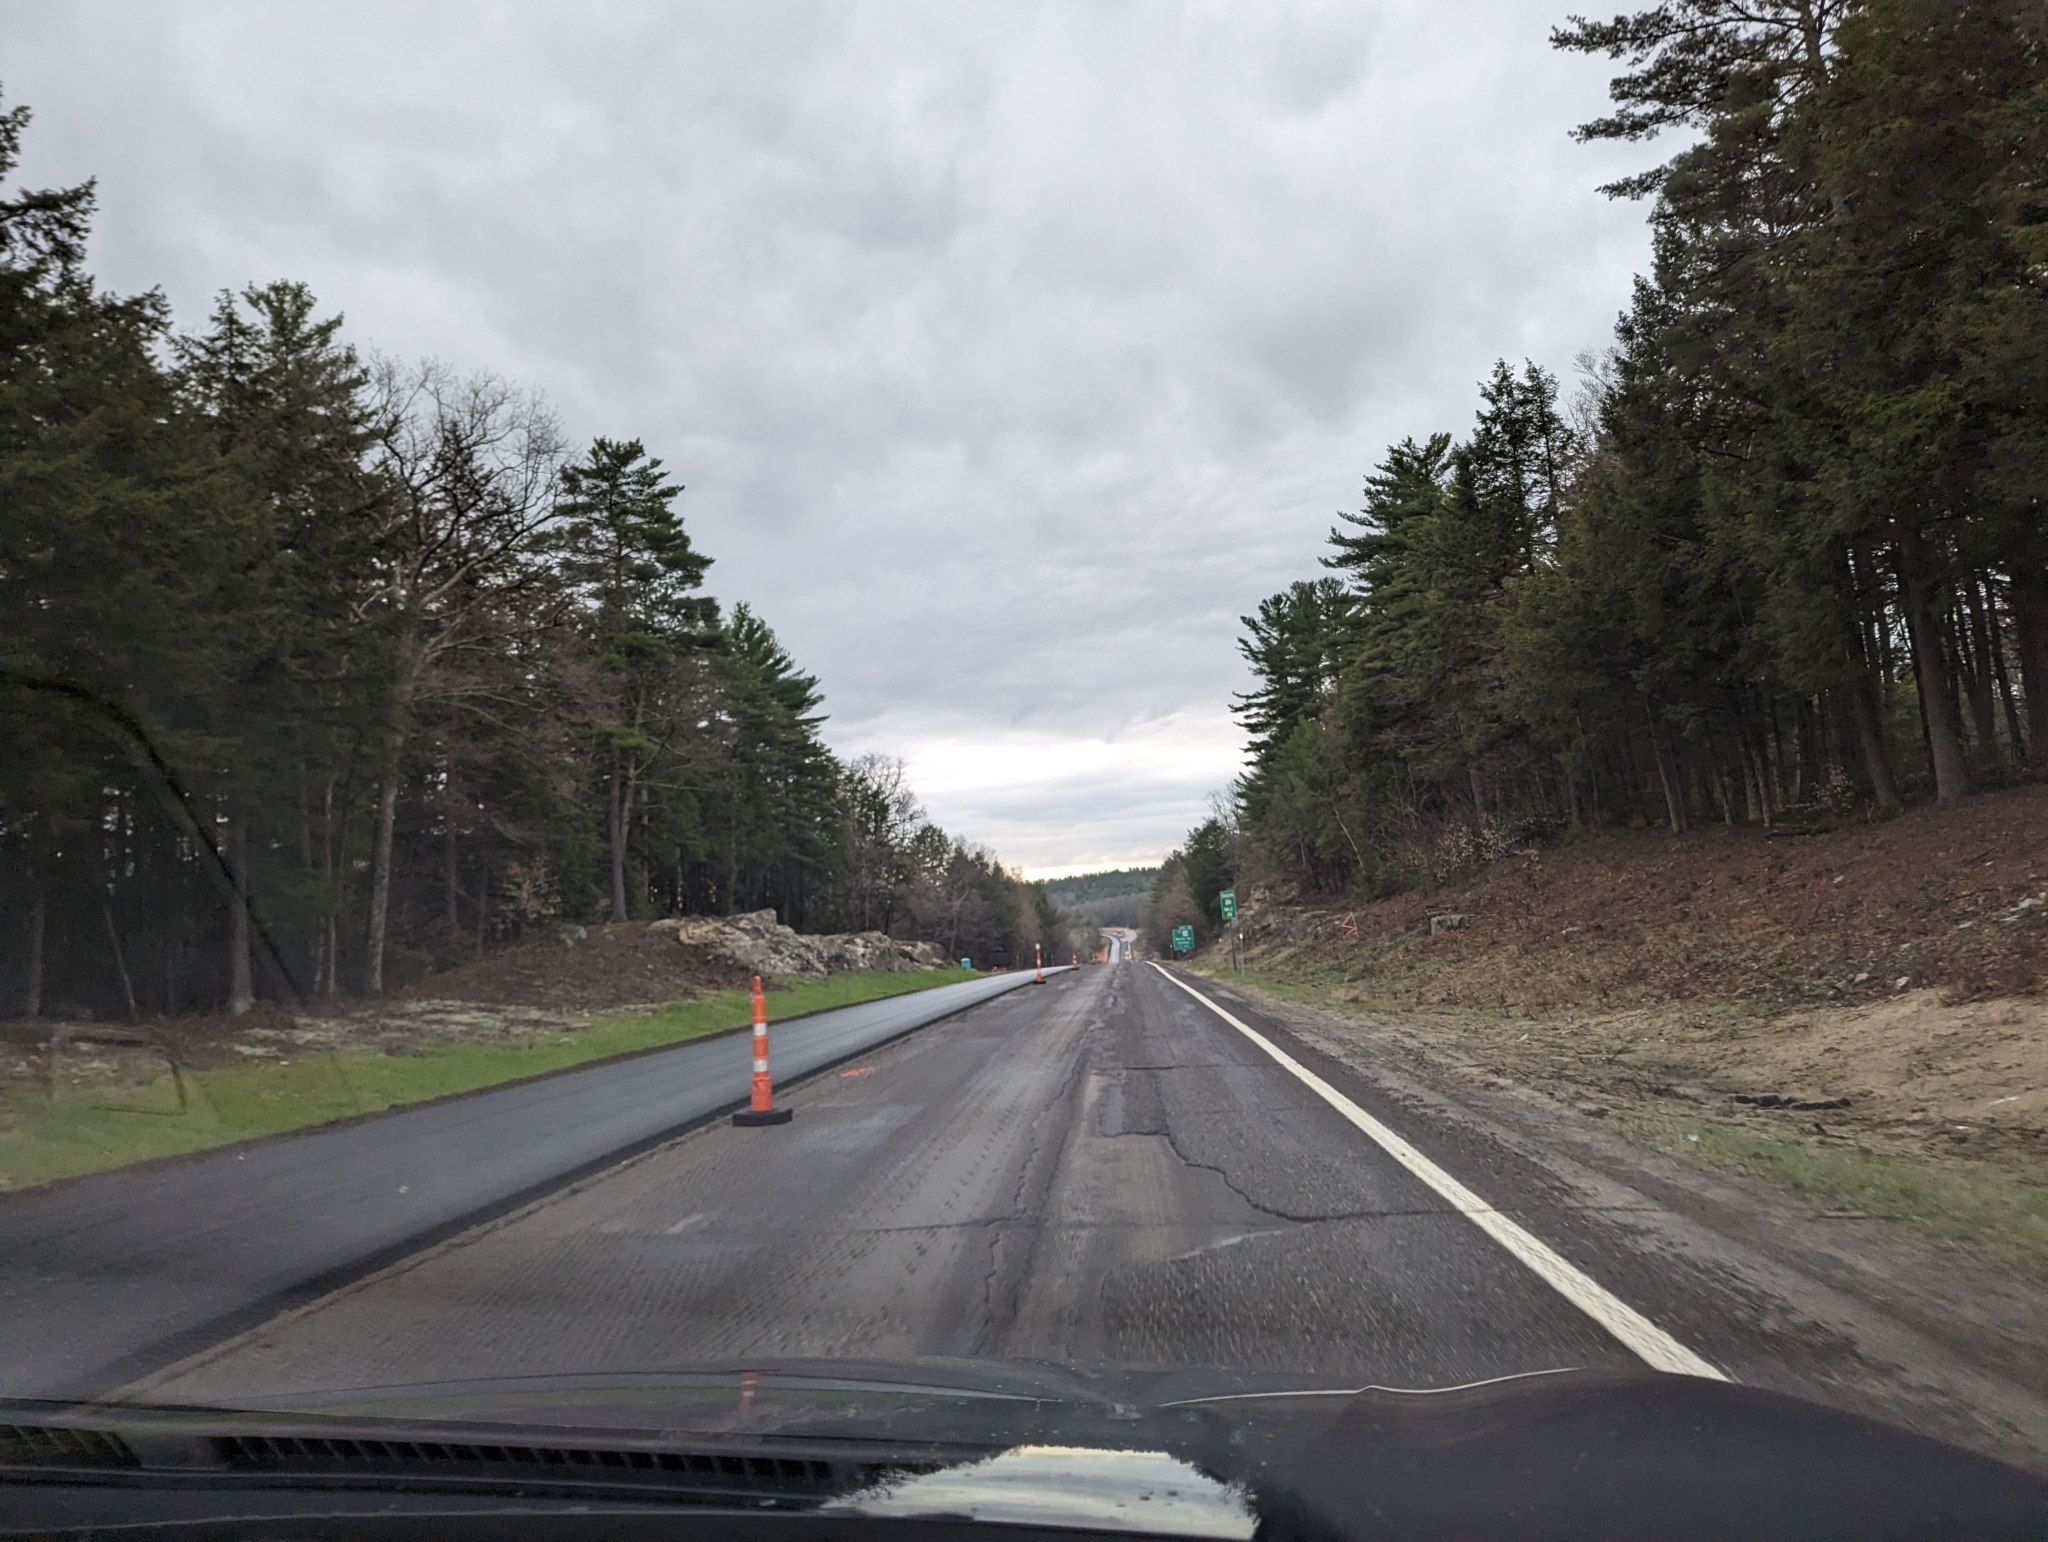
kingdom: Plantae
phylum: Tracheophyta
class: Pinopsida
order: Pinales
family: Pinaceae
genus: Pinus
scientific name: Pinus strobus
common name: Weymouth pine
